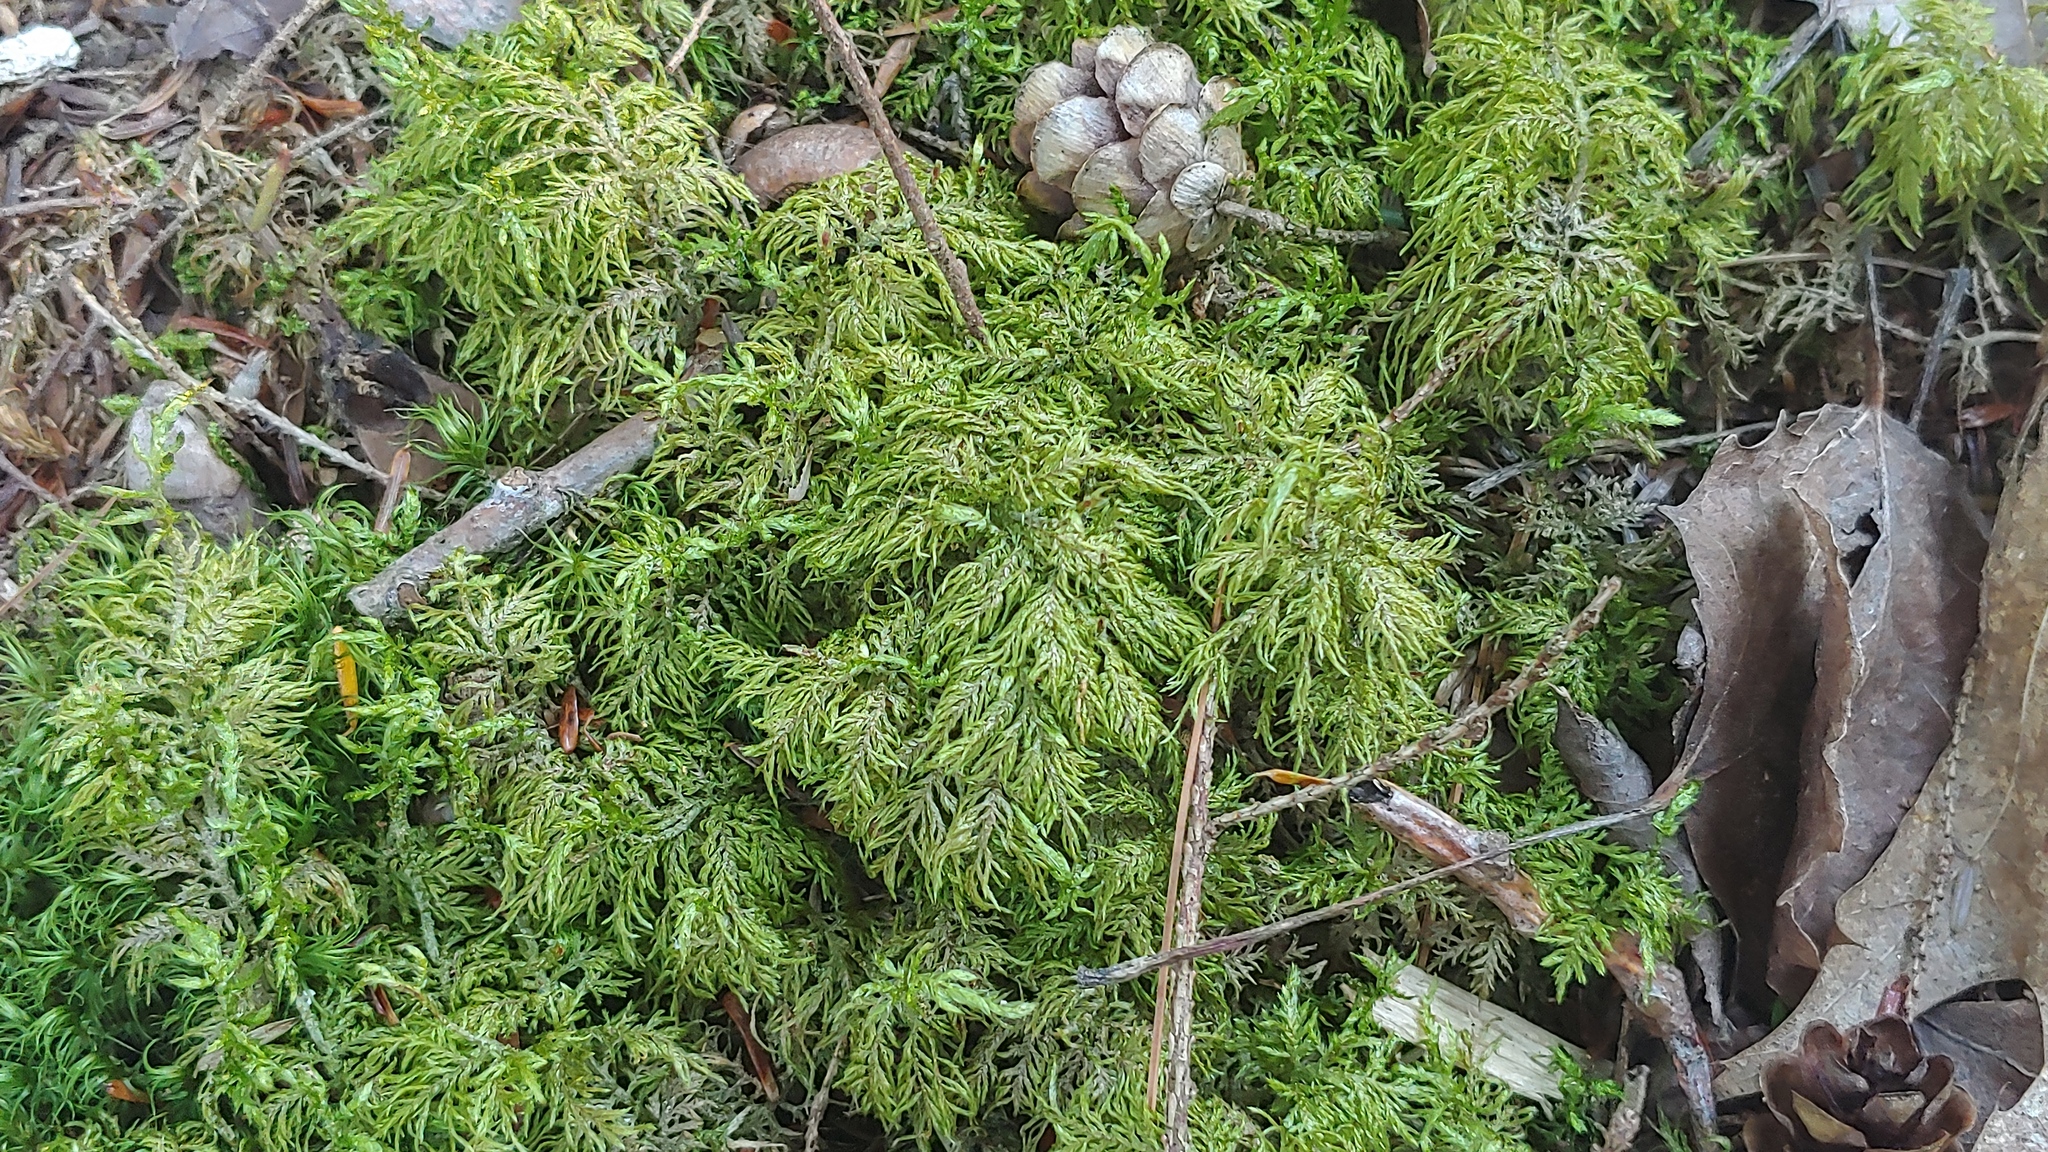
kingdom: Plantae
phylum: Bryophyta
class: Bryopsida
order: Hypnales
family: Hylocomiaceae
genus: Hylocomium
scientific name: Hylocomium splendens
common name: Stairstep moss
